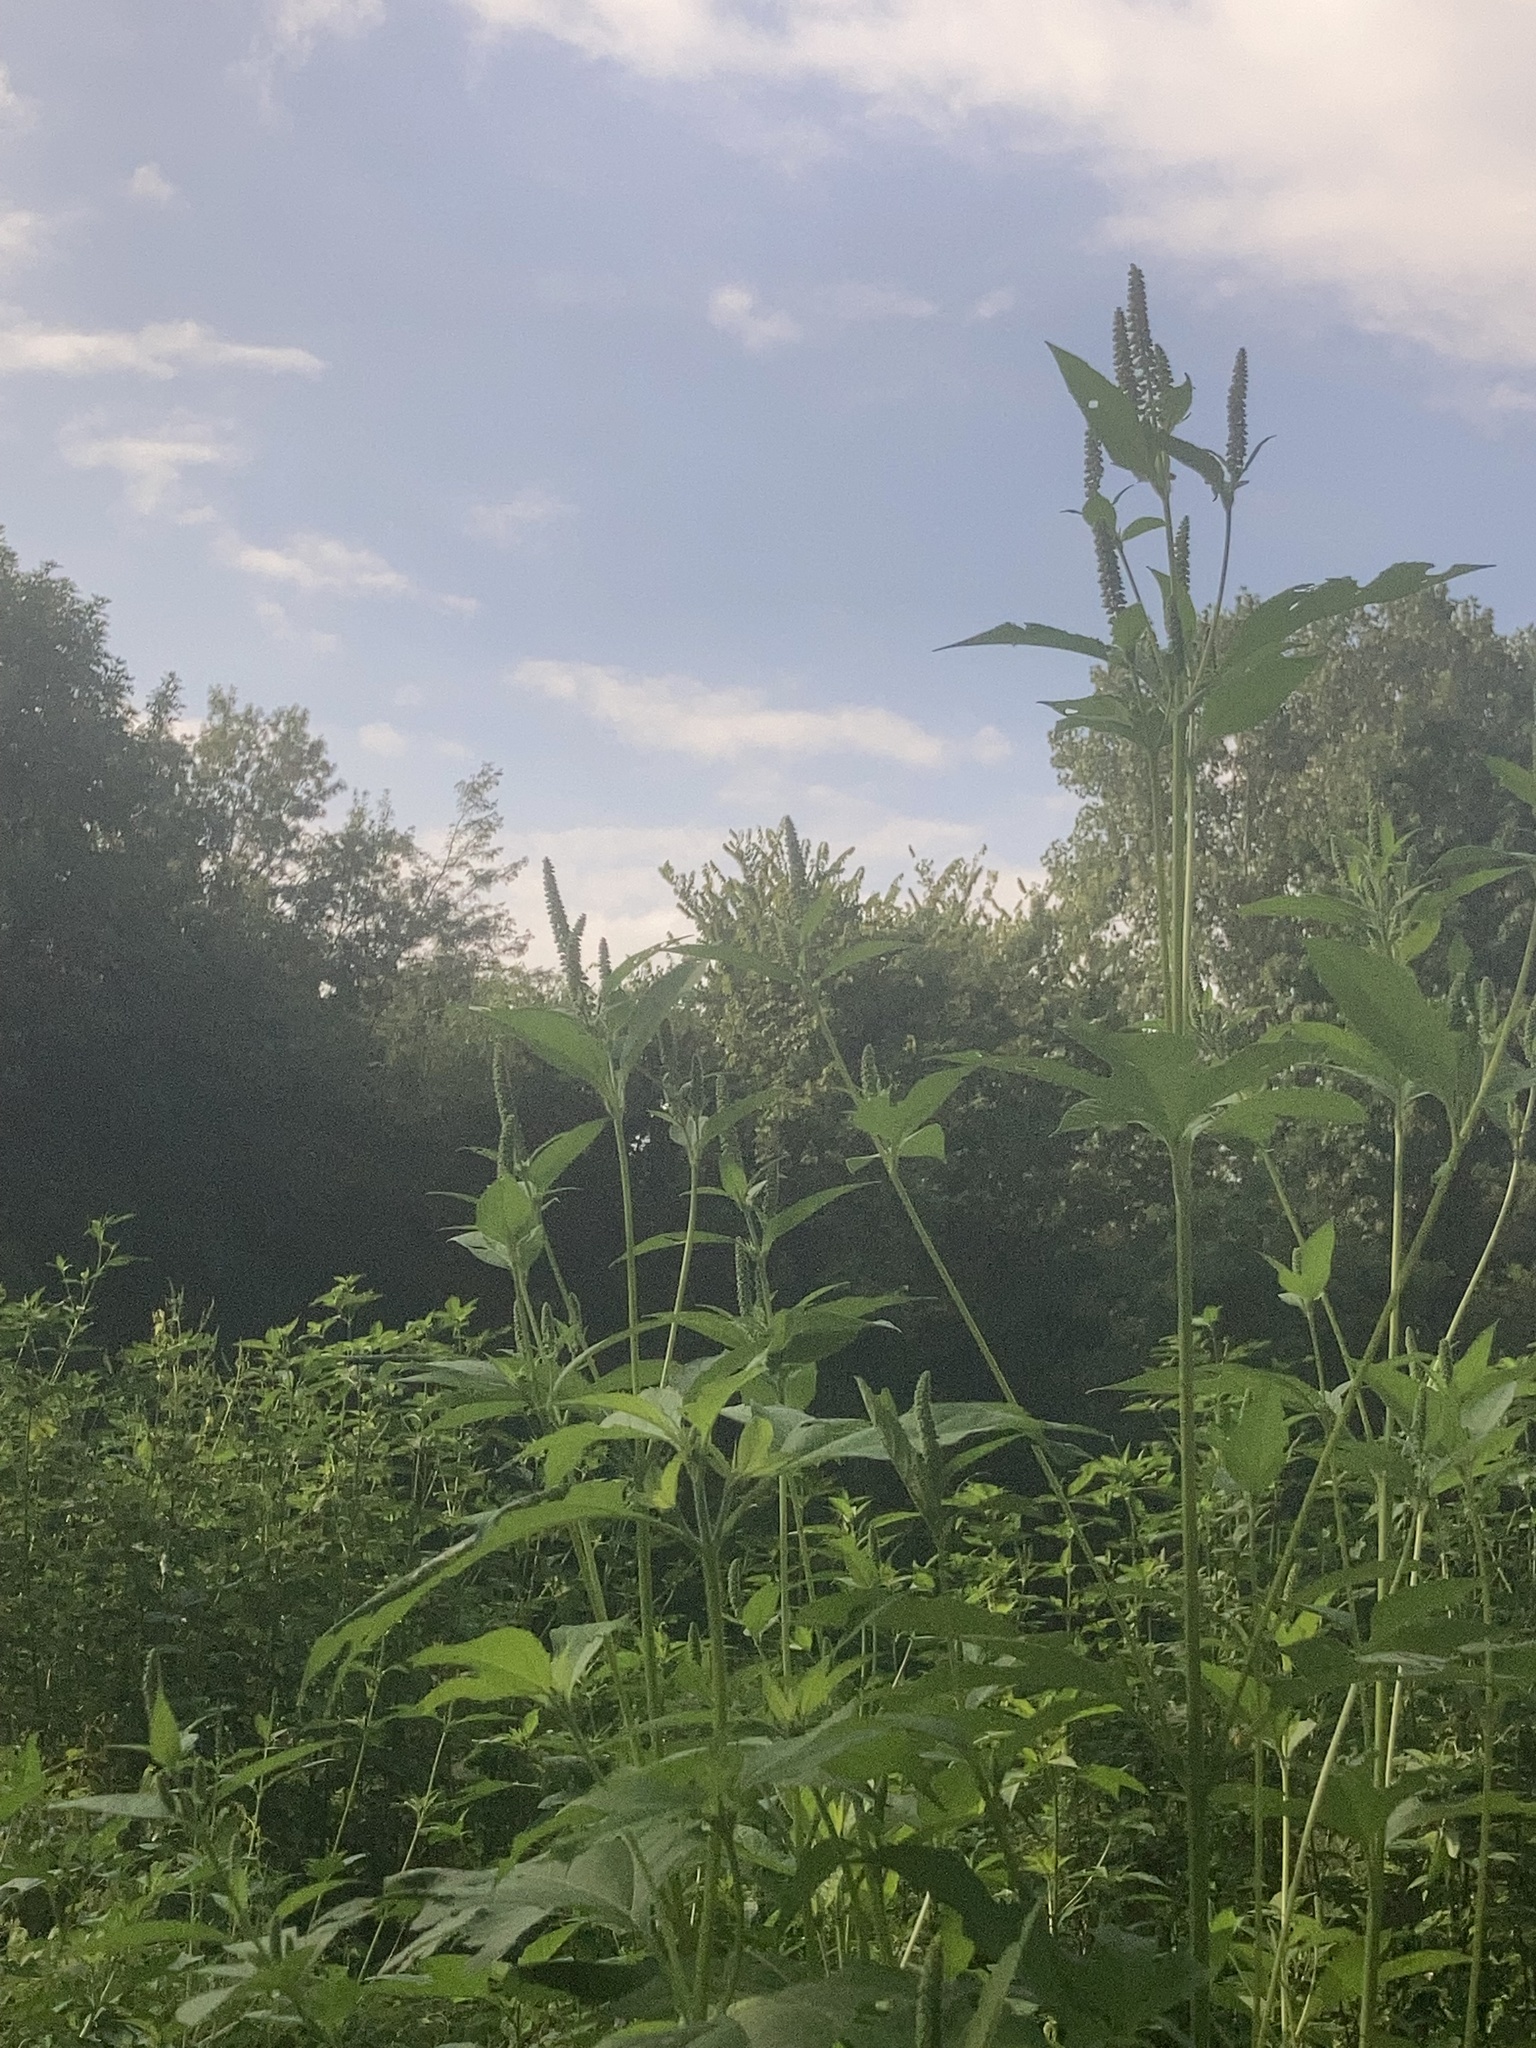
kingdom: Plantae
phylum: Tracheophyta
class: Magnoliopsida
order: Asterales
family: Asteraceae
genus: Ambrosia
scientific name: Ambrosia trifida
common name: Giant ragweed
